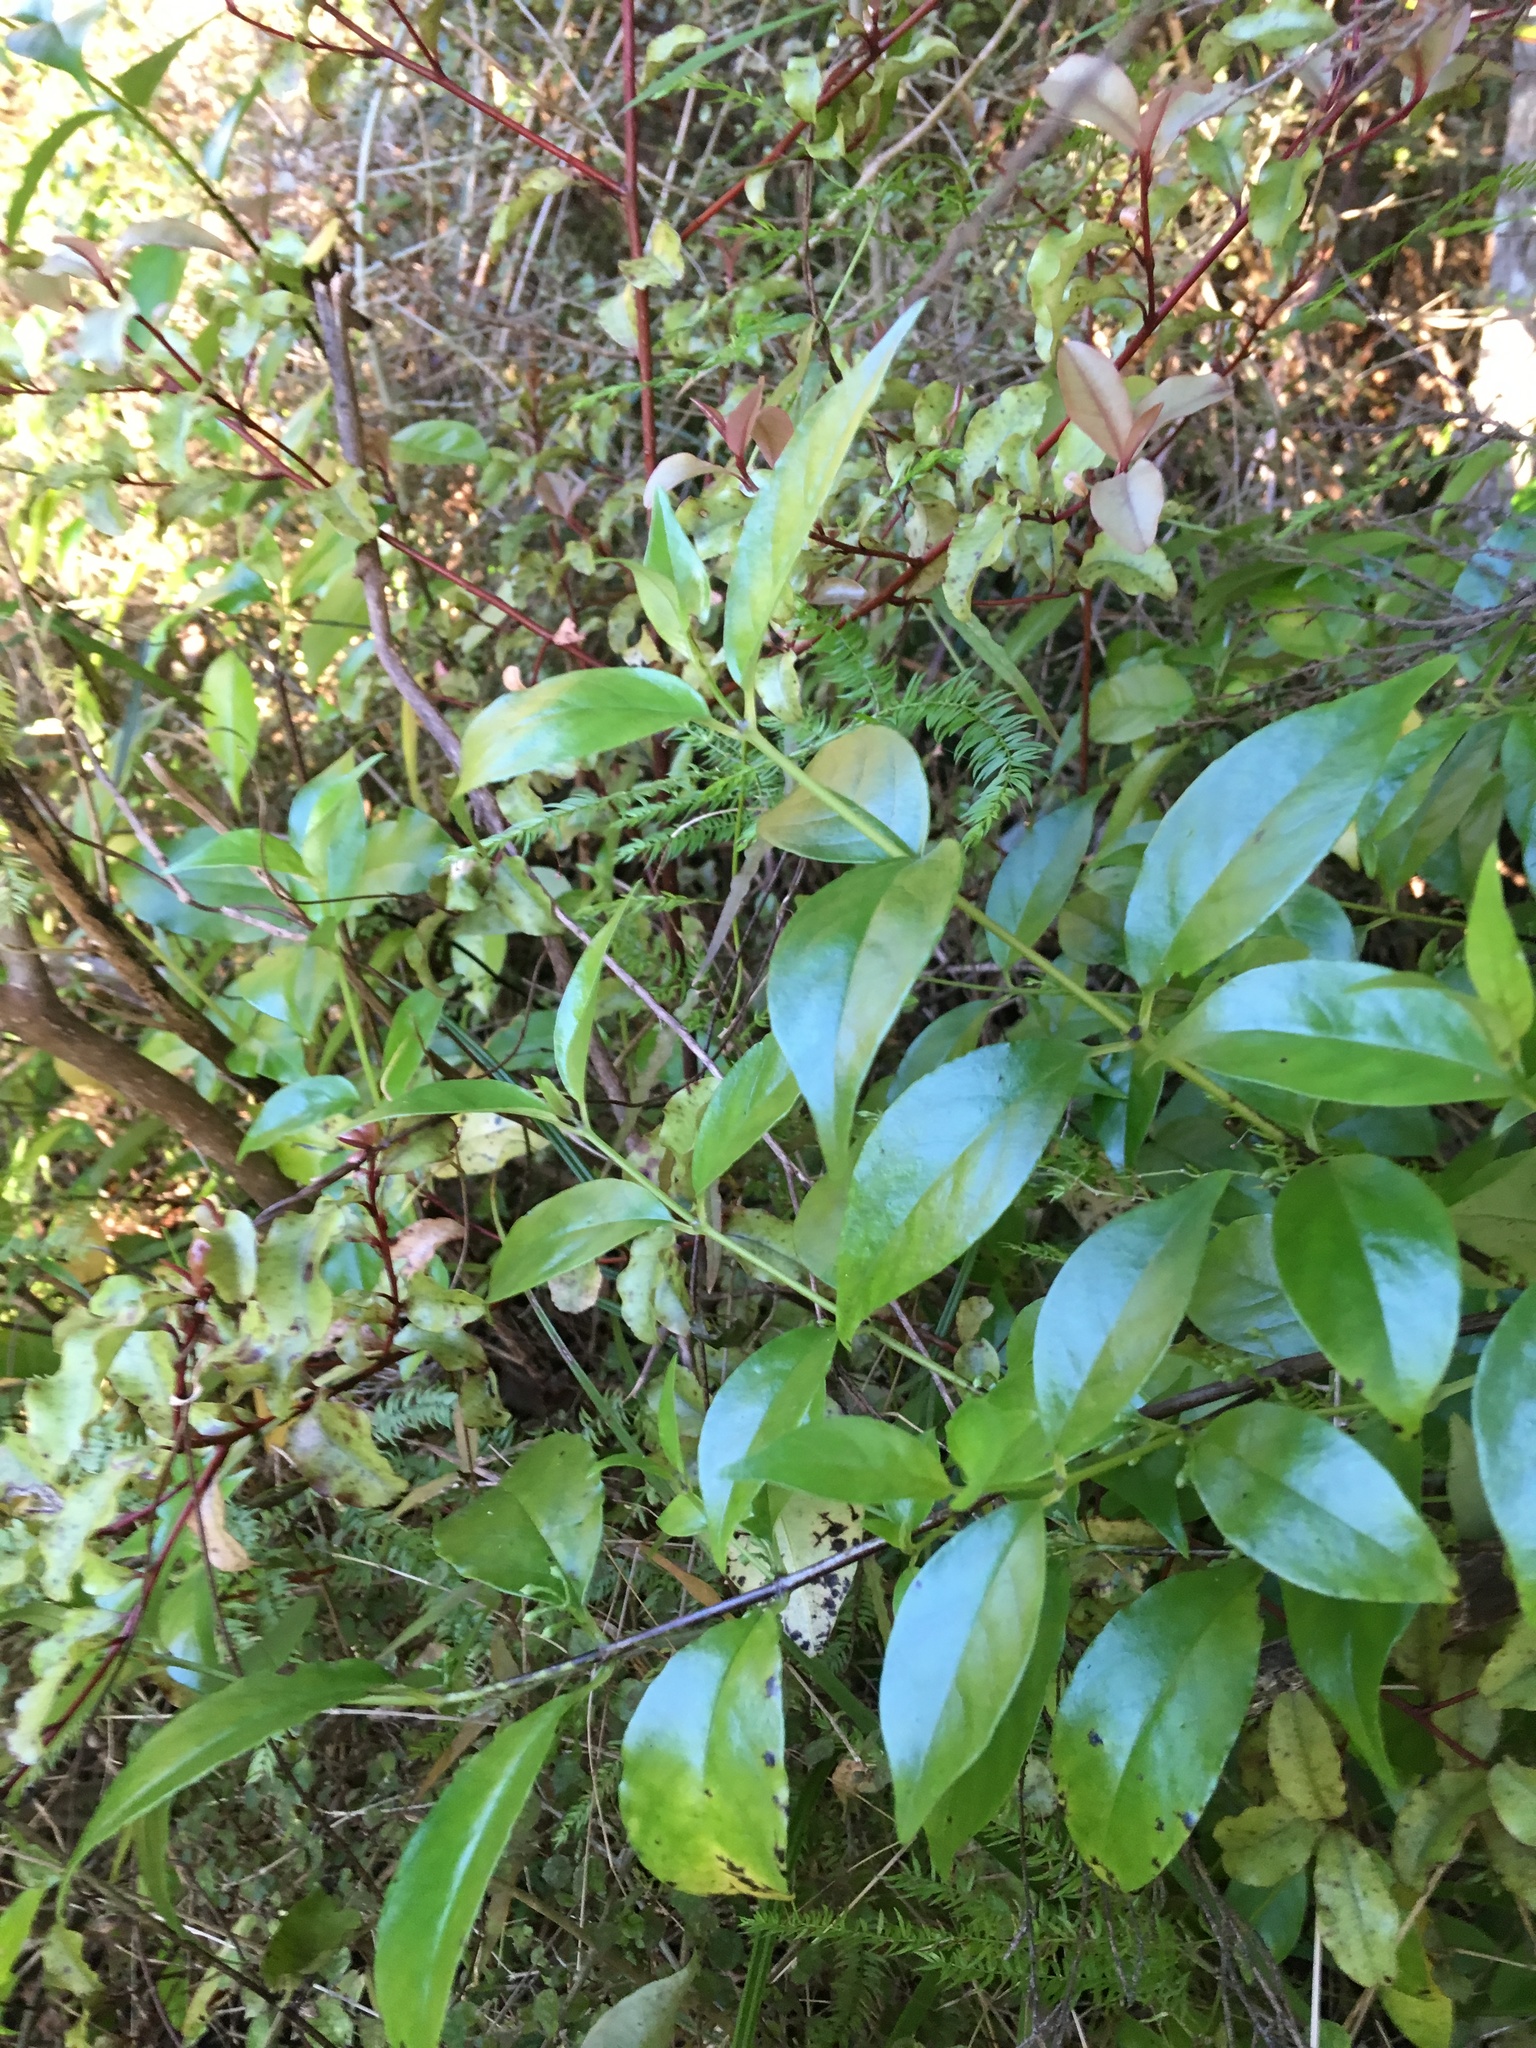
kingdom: Plantae
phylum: Tracheophyta
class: Magnoliopsida
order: Gentianales
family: Loganiaceae
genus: Geniostoma
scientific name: Geniostoma ligustrifolium
